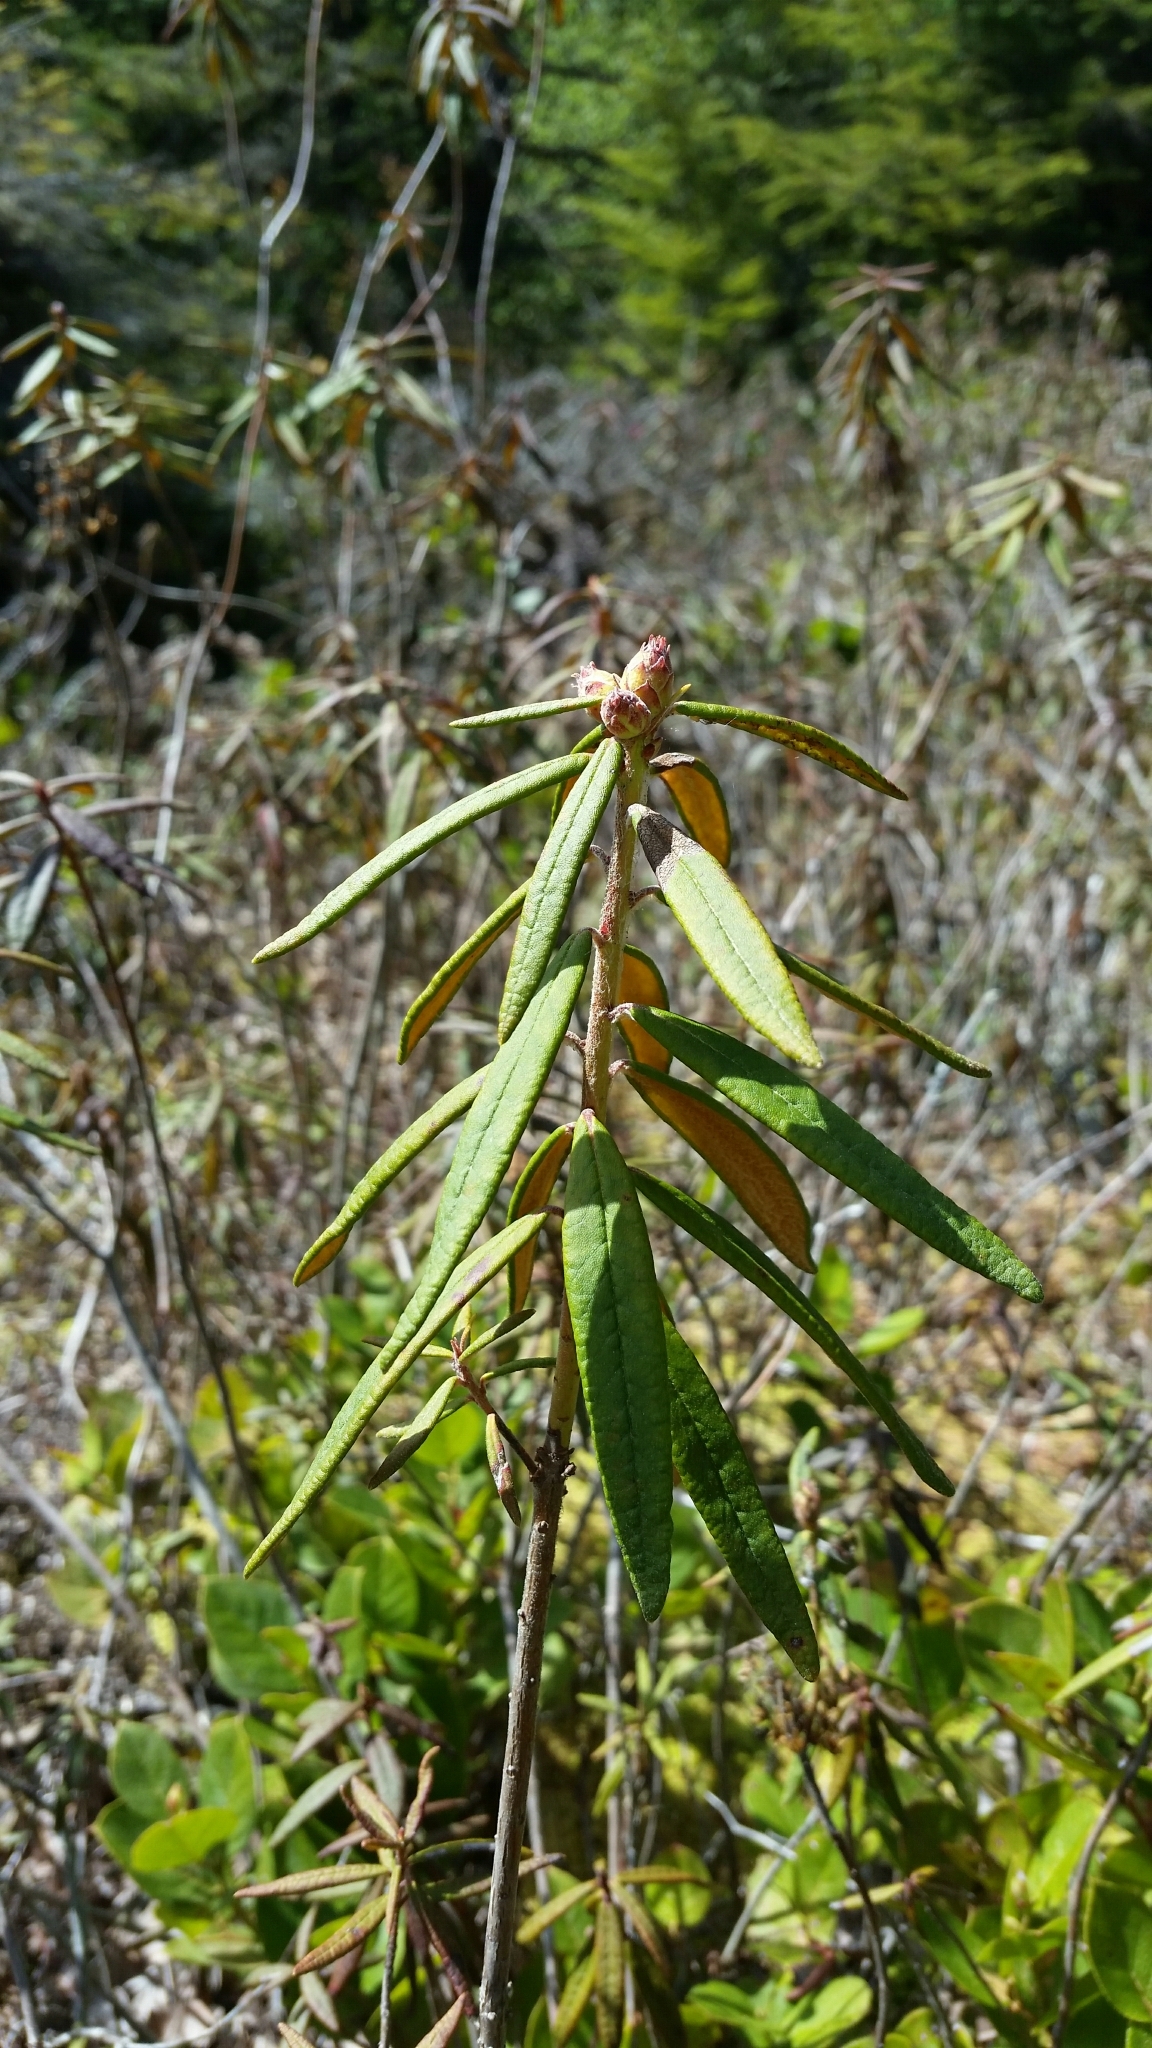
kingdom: Plantae
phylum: Tracheophyta
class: Magnoliopsida
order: Ericales
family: Ericaceae
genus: Rhododendron
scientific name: Rhododendron groenlandicum
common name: Bog labrador tea
